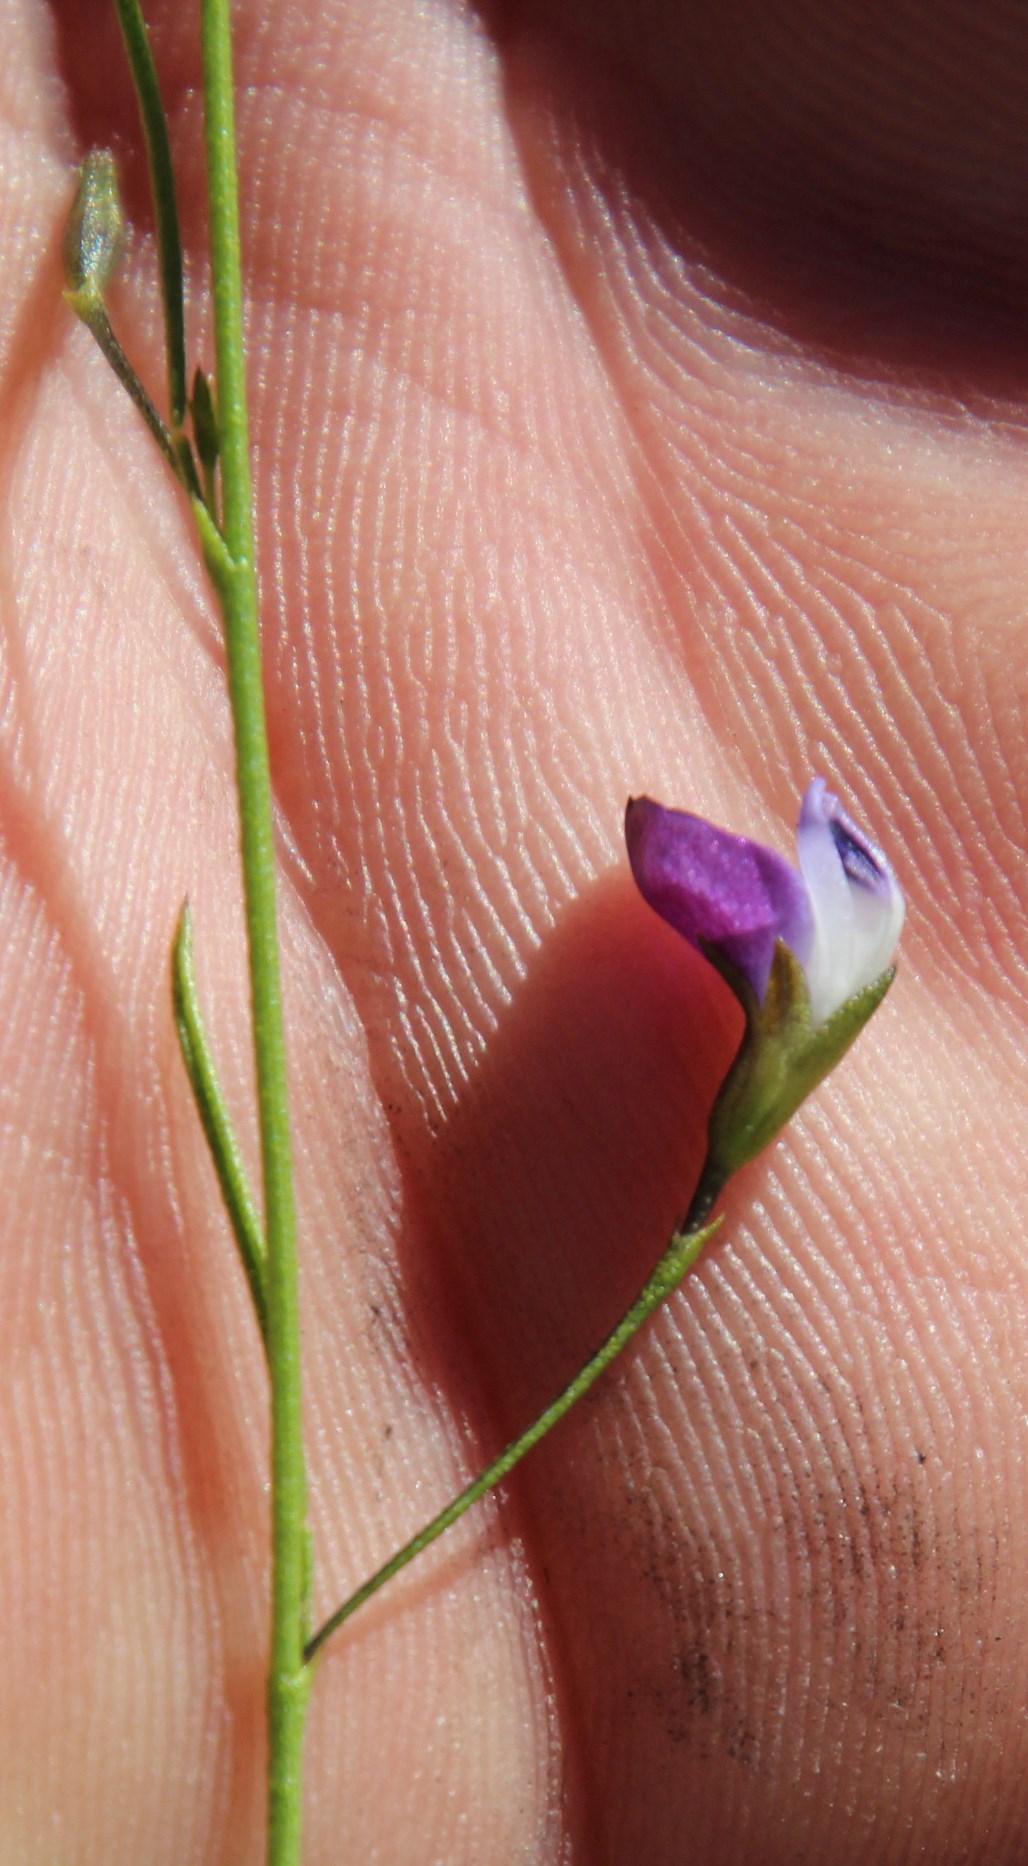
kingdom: Plantae
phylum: Tracheophyta
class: Magnoliopsida
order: Fabales
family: Fabaceae
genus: Psoralea
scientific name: Psoralea tenuissima
